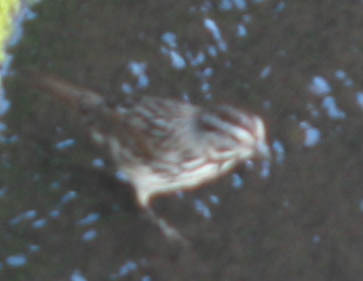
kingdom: Animalia
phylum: Chordata
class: Aves
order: Passeriformes
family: Passerellidae
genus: Melospiza
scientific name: Melospiza melodia
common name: Song sparrow
